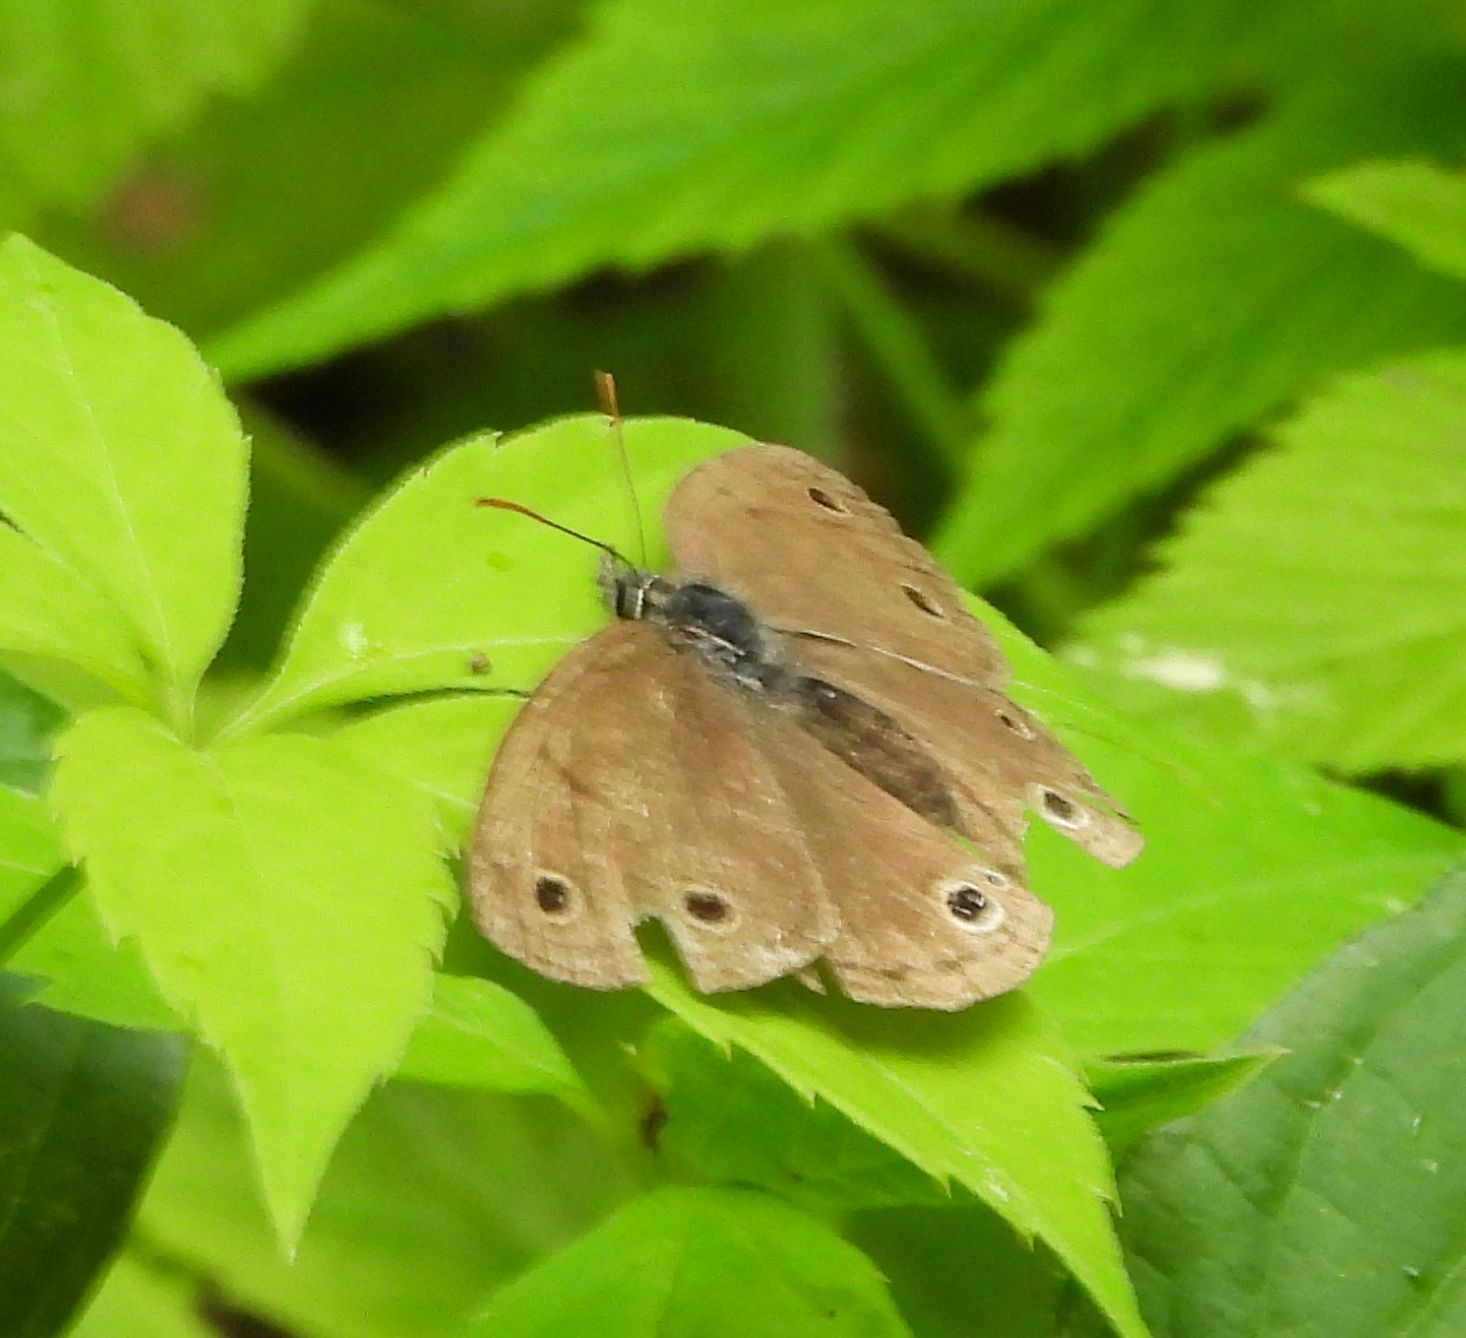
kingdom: Animalia
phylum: Arthropoda
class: Insecta
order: Lepidoptera
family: Nymphalidae
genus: Euptychia
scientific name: Euptychia cymela
